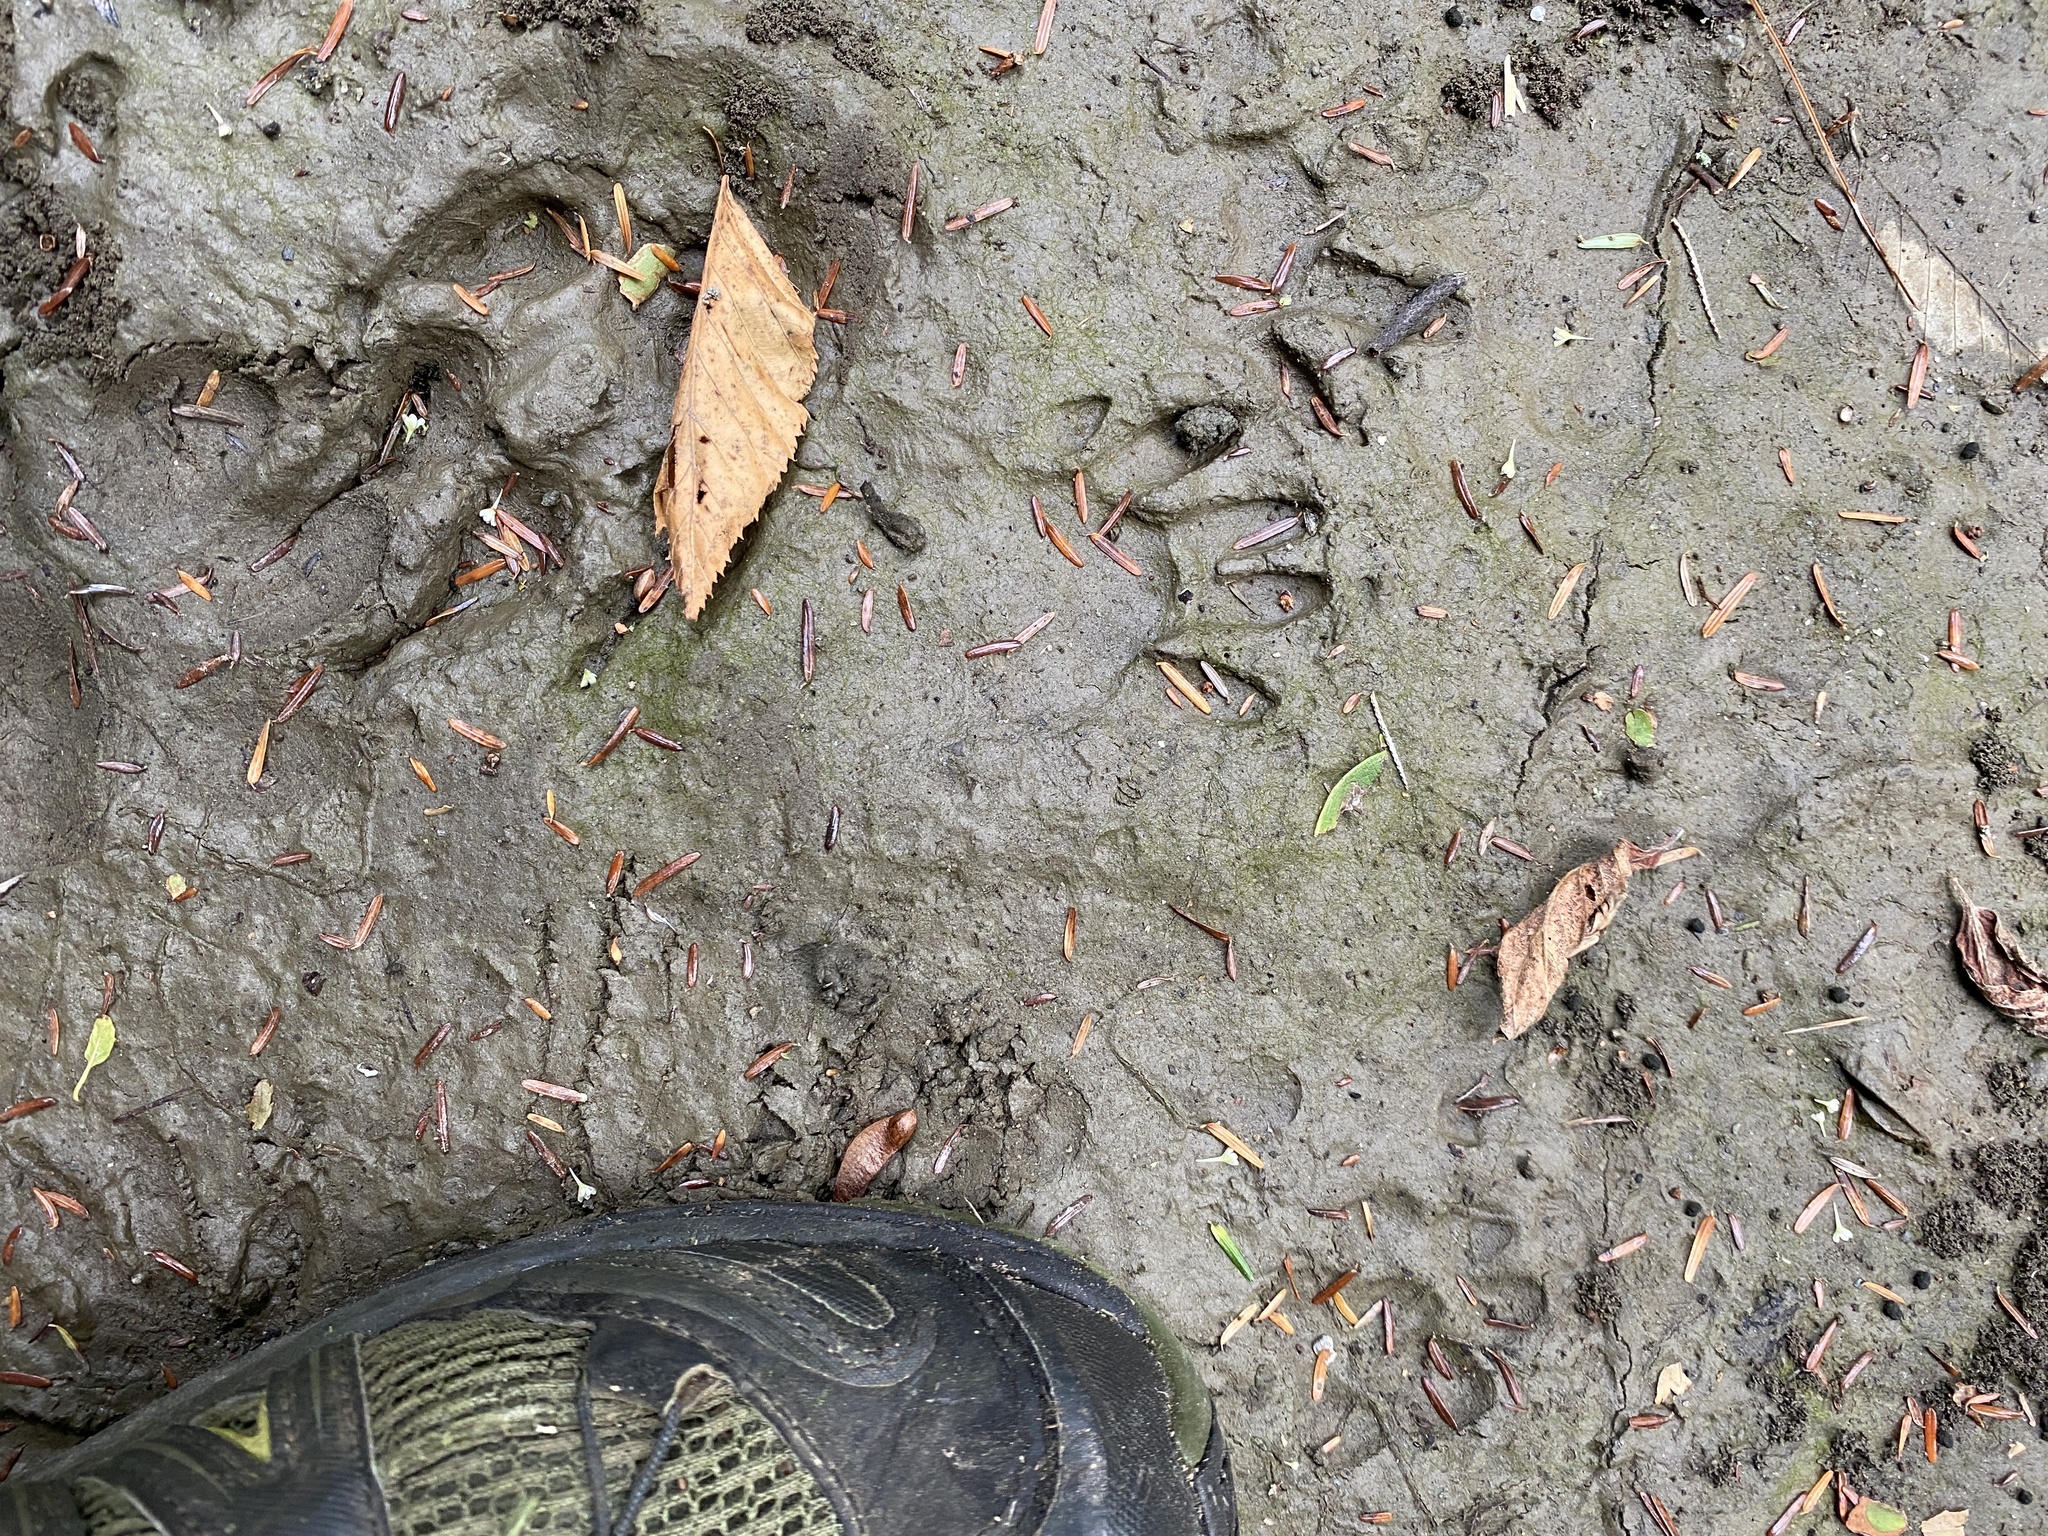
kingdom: Animalia
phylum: Chordata
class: Mammalia
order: Carnivora
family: Procyonidae
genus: Procyon
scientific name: Procyon lotor
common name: Raccoon
